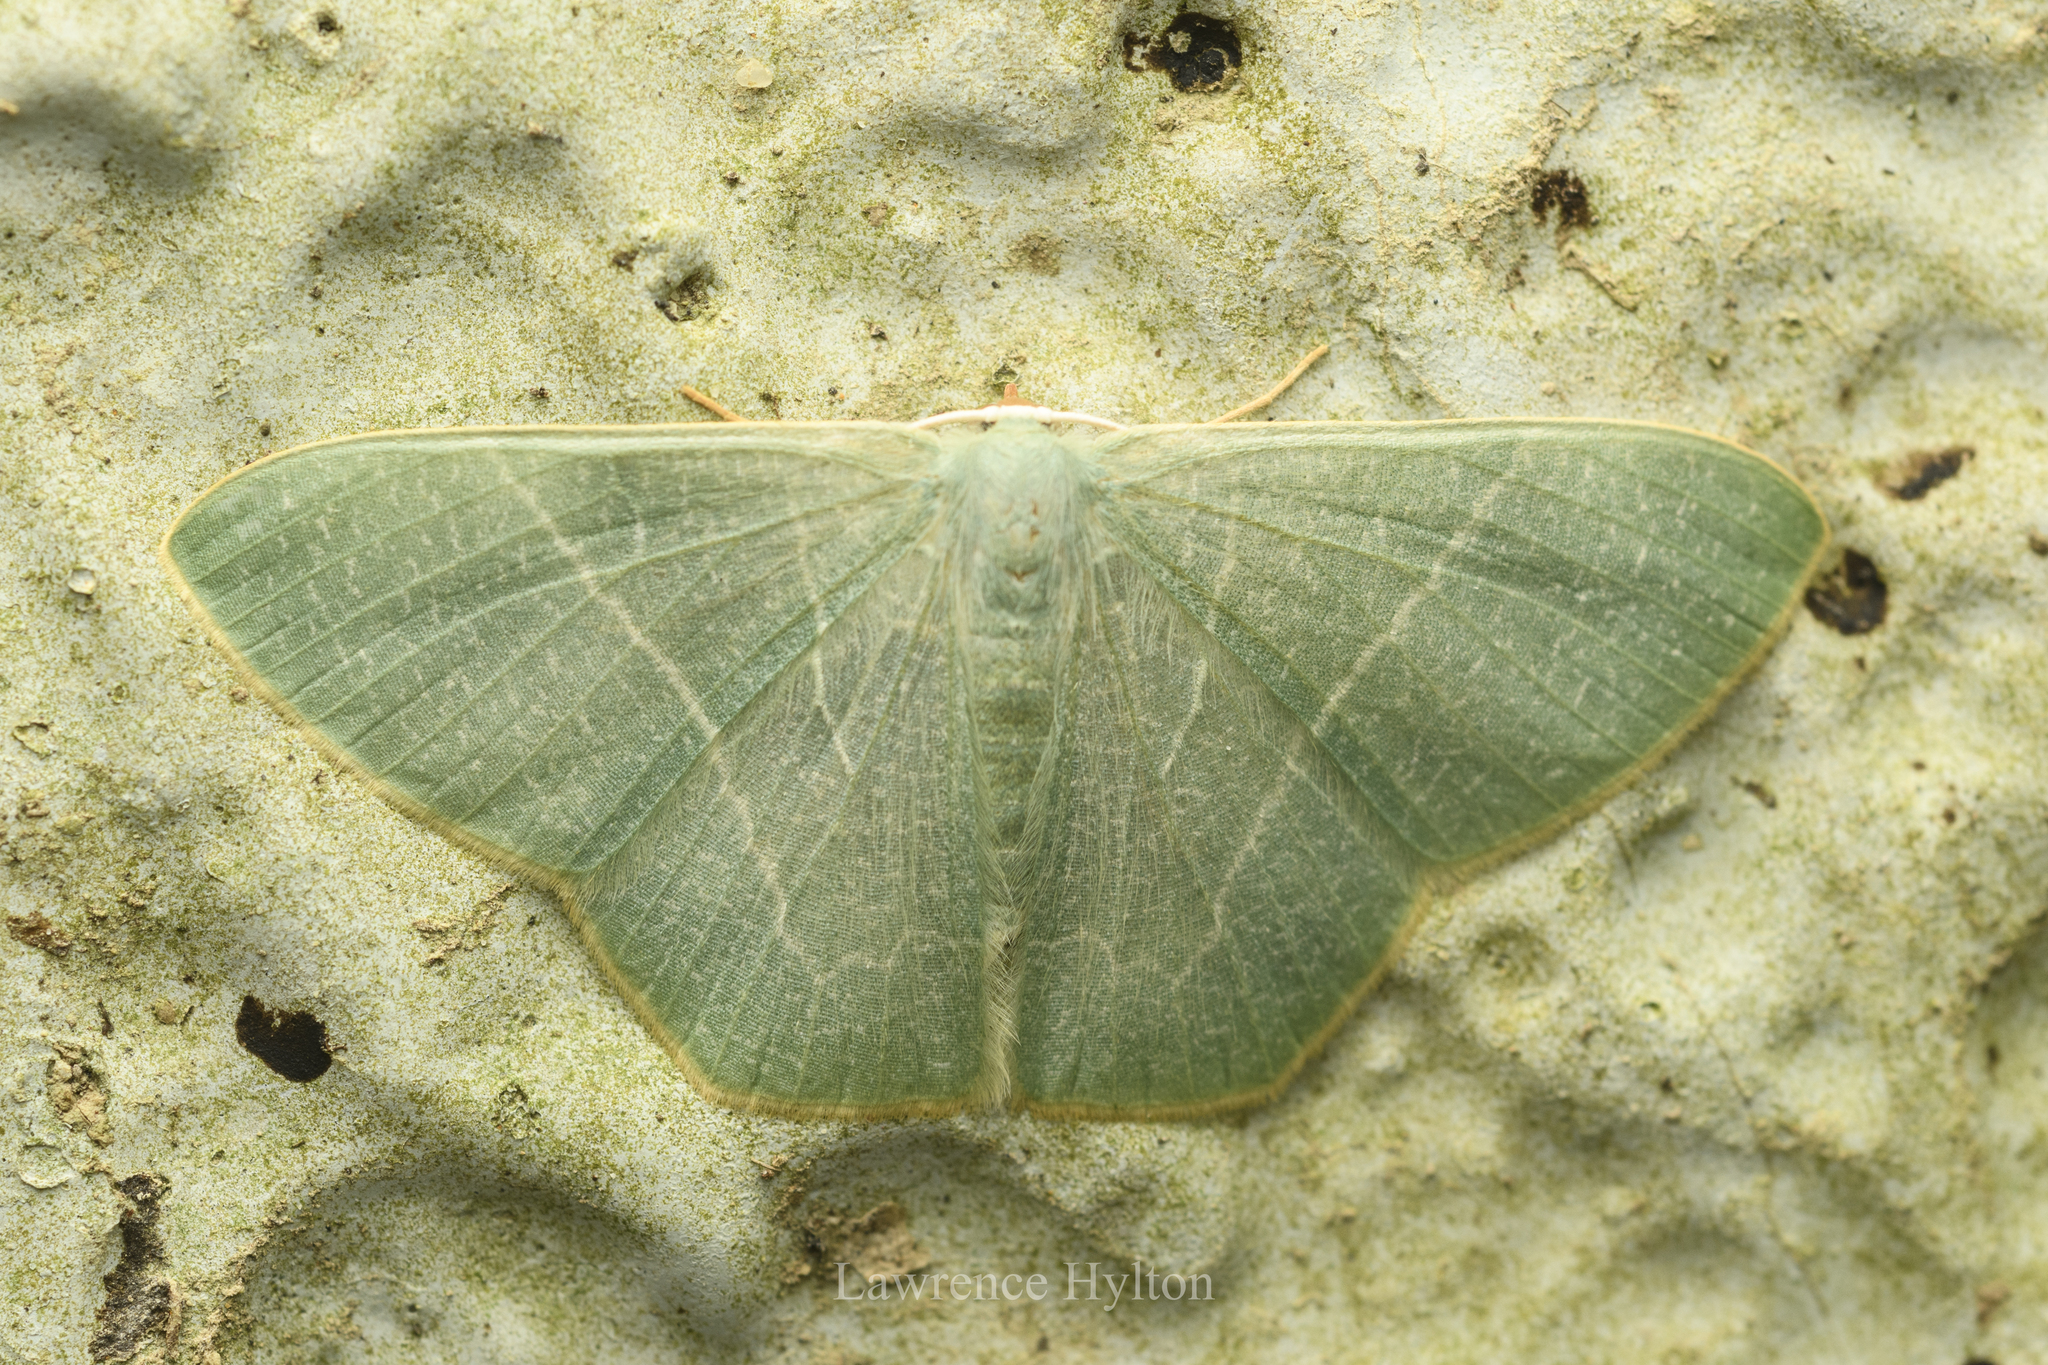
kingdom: Animalia
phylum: Arthropoda
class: Insecta
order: Lepidoptera
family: Geometridae
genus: Pelagodes
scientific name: Pelagodes antiquadraria
